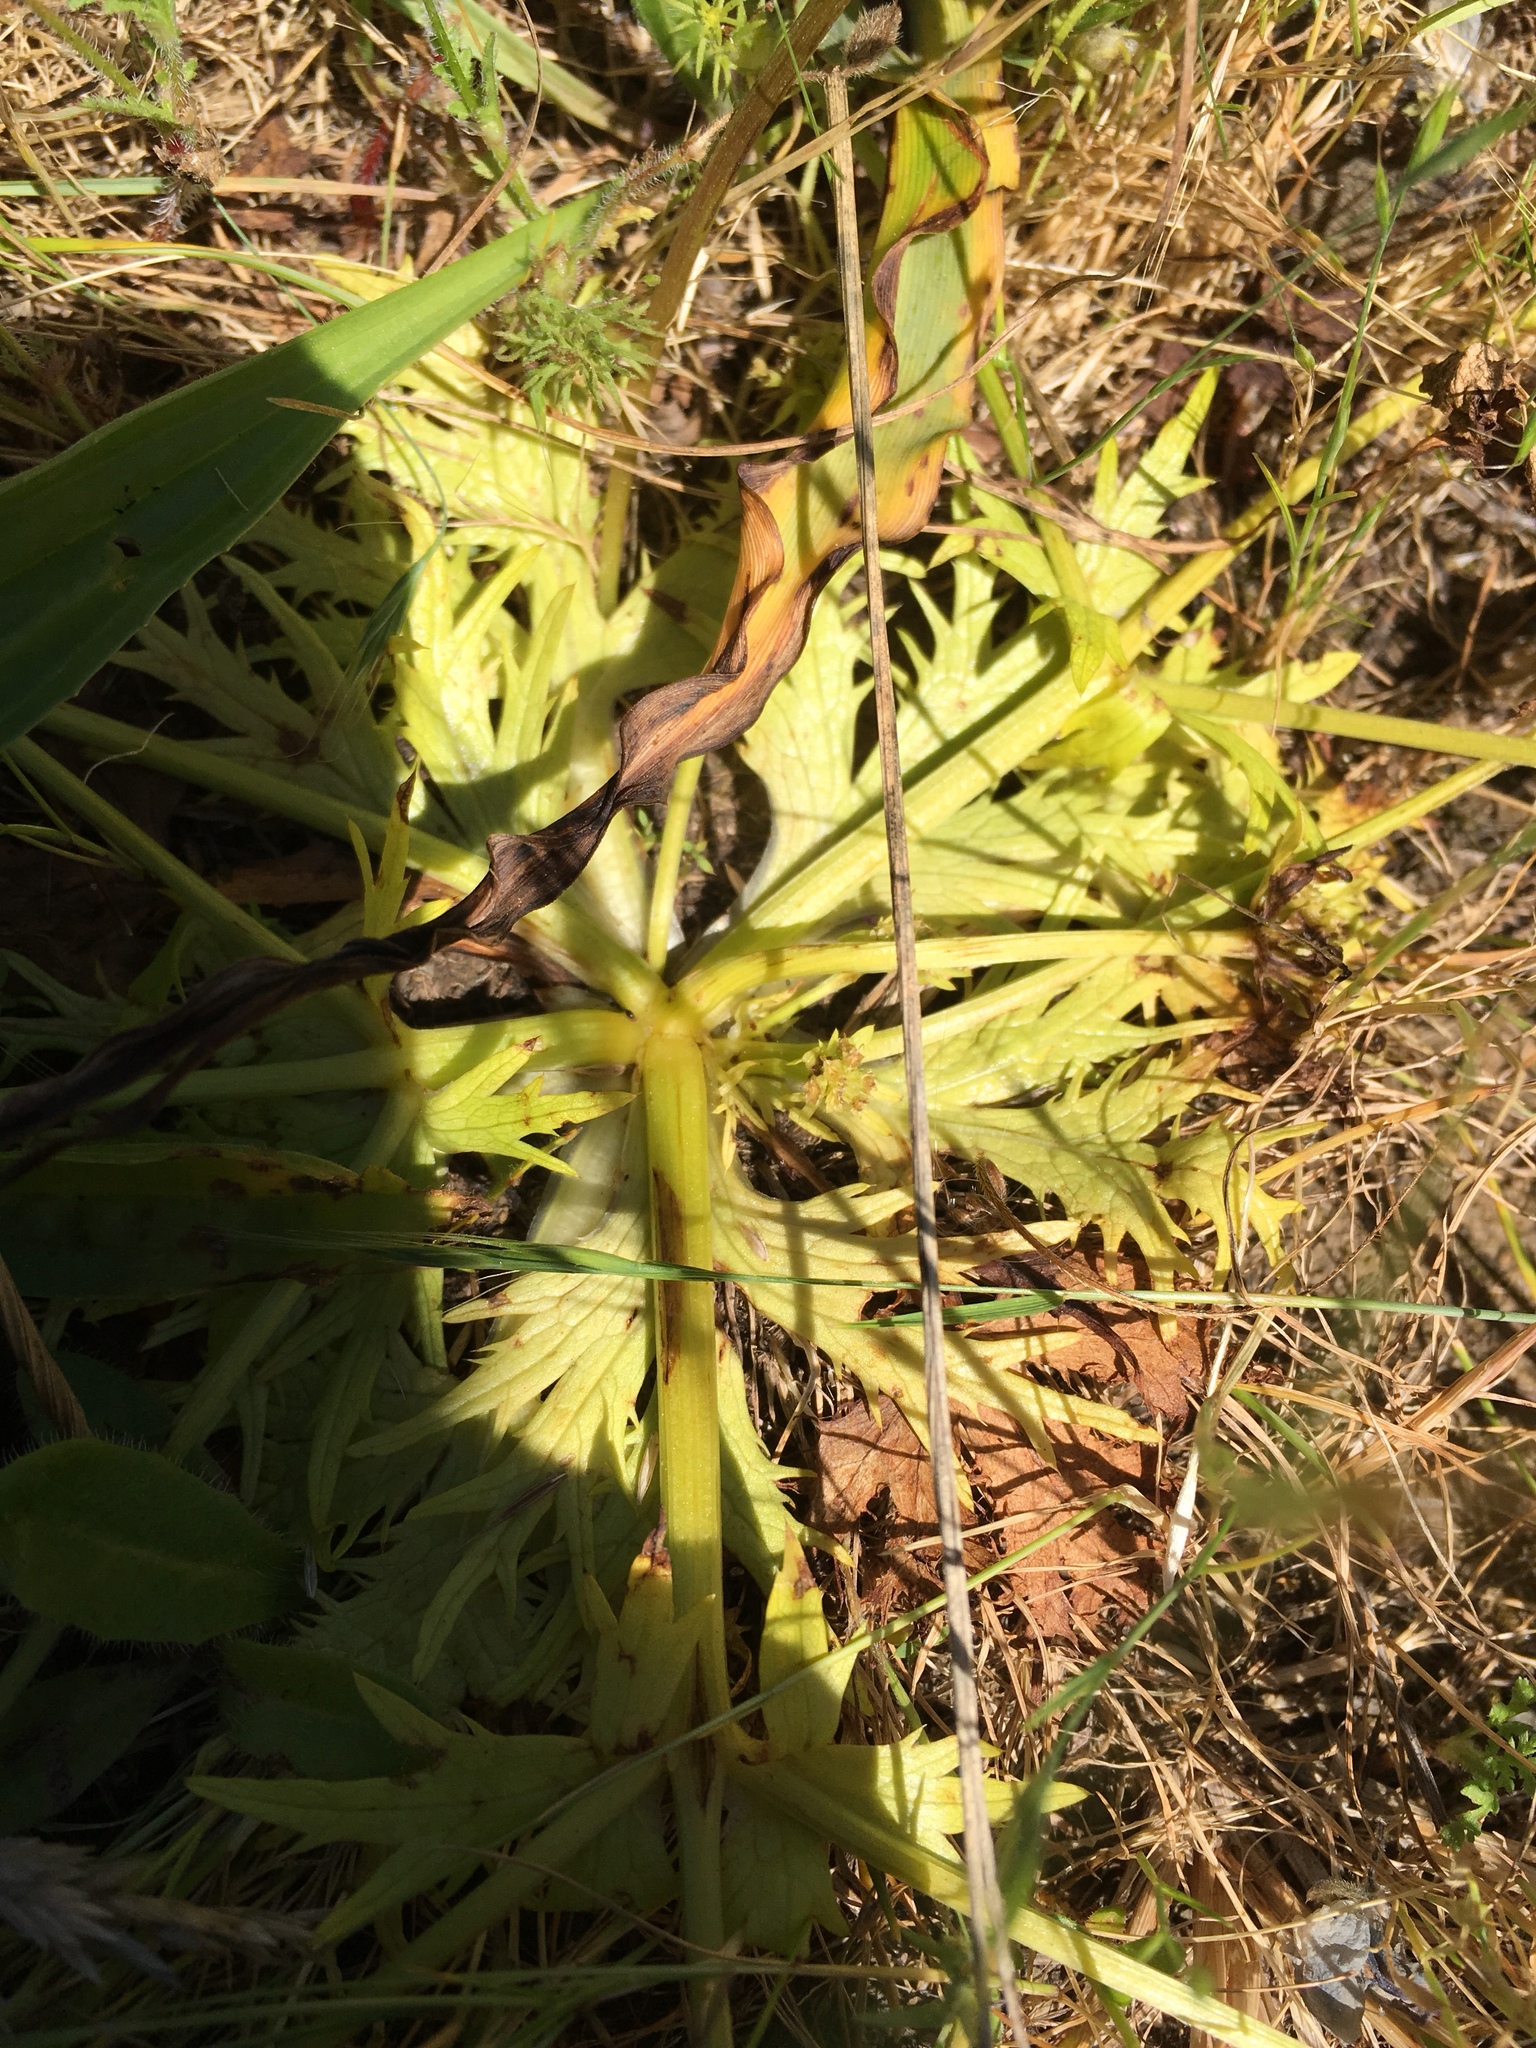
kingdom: Plantae
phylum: Tracheophyta
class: Magnoliopsida
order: Apiales
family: Apiaceae
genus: Sanicula
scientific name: Sanicula arctopoides
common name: Footsteps-of-spring
